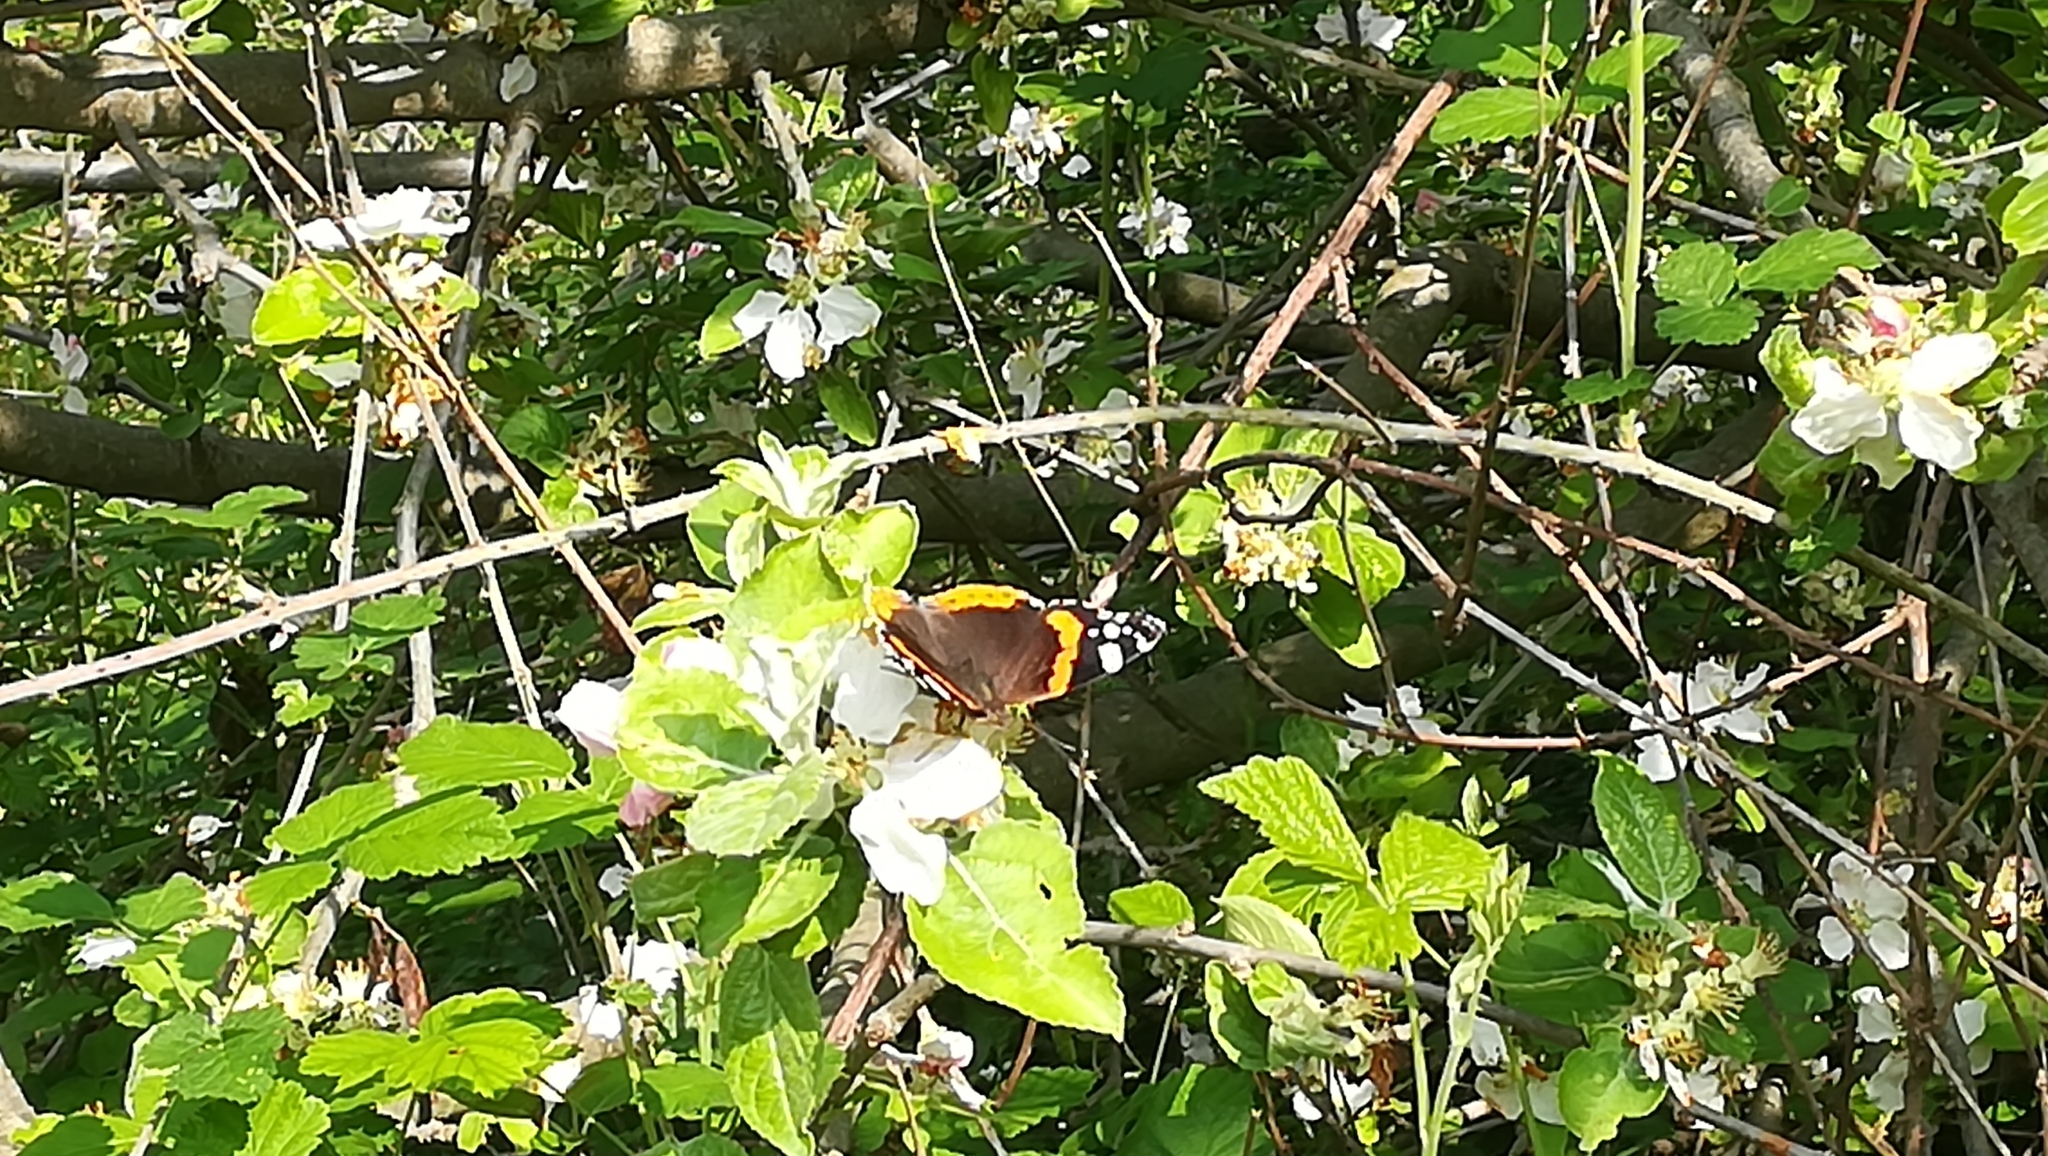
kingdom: Animalia
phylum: Arthropoda
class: Insecta
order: Lepidoptera
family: Nymphalidae
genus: Vanessa
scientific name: Vanessa atalanta
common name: Red admiral
